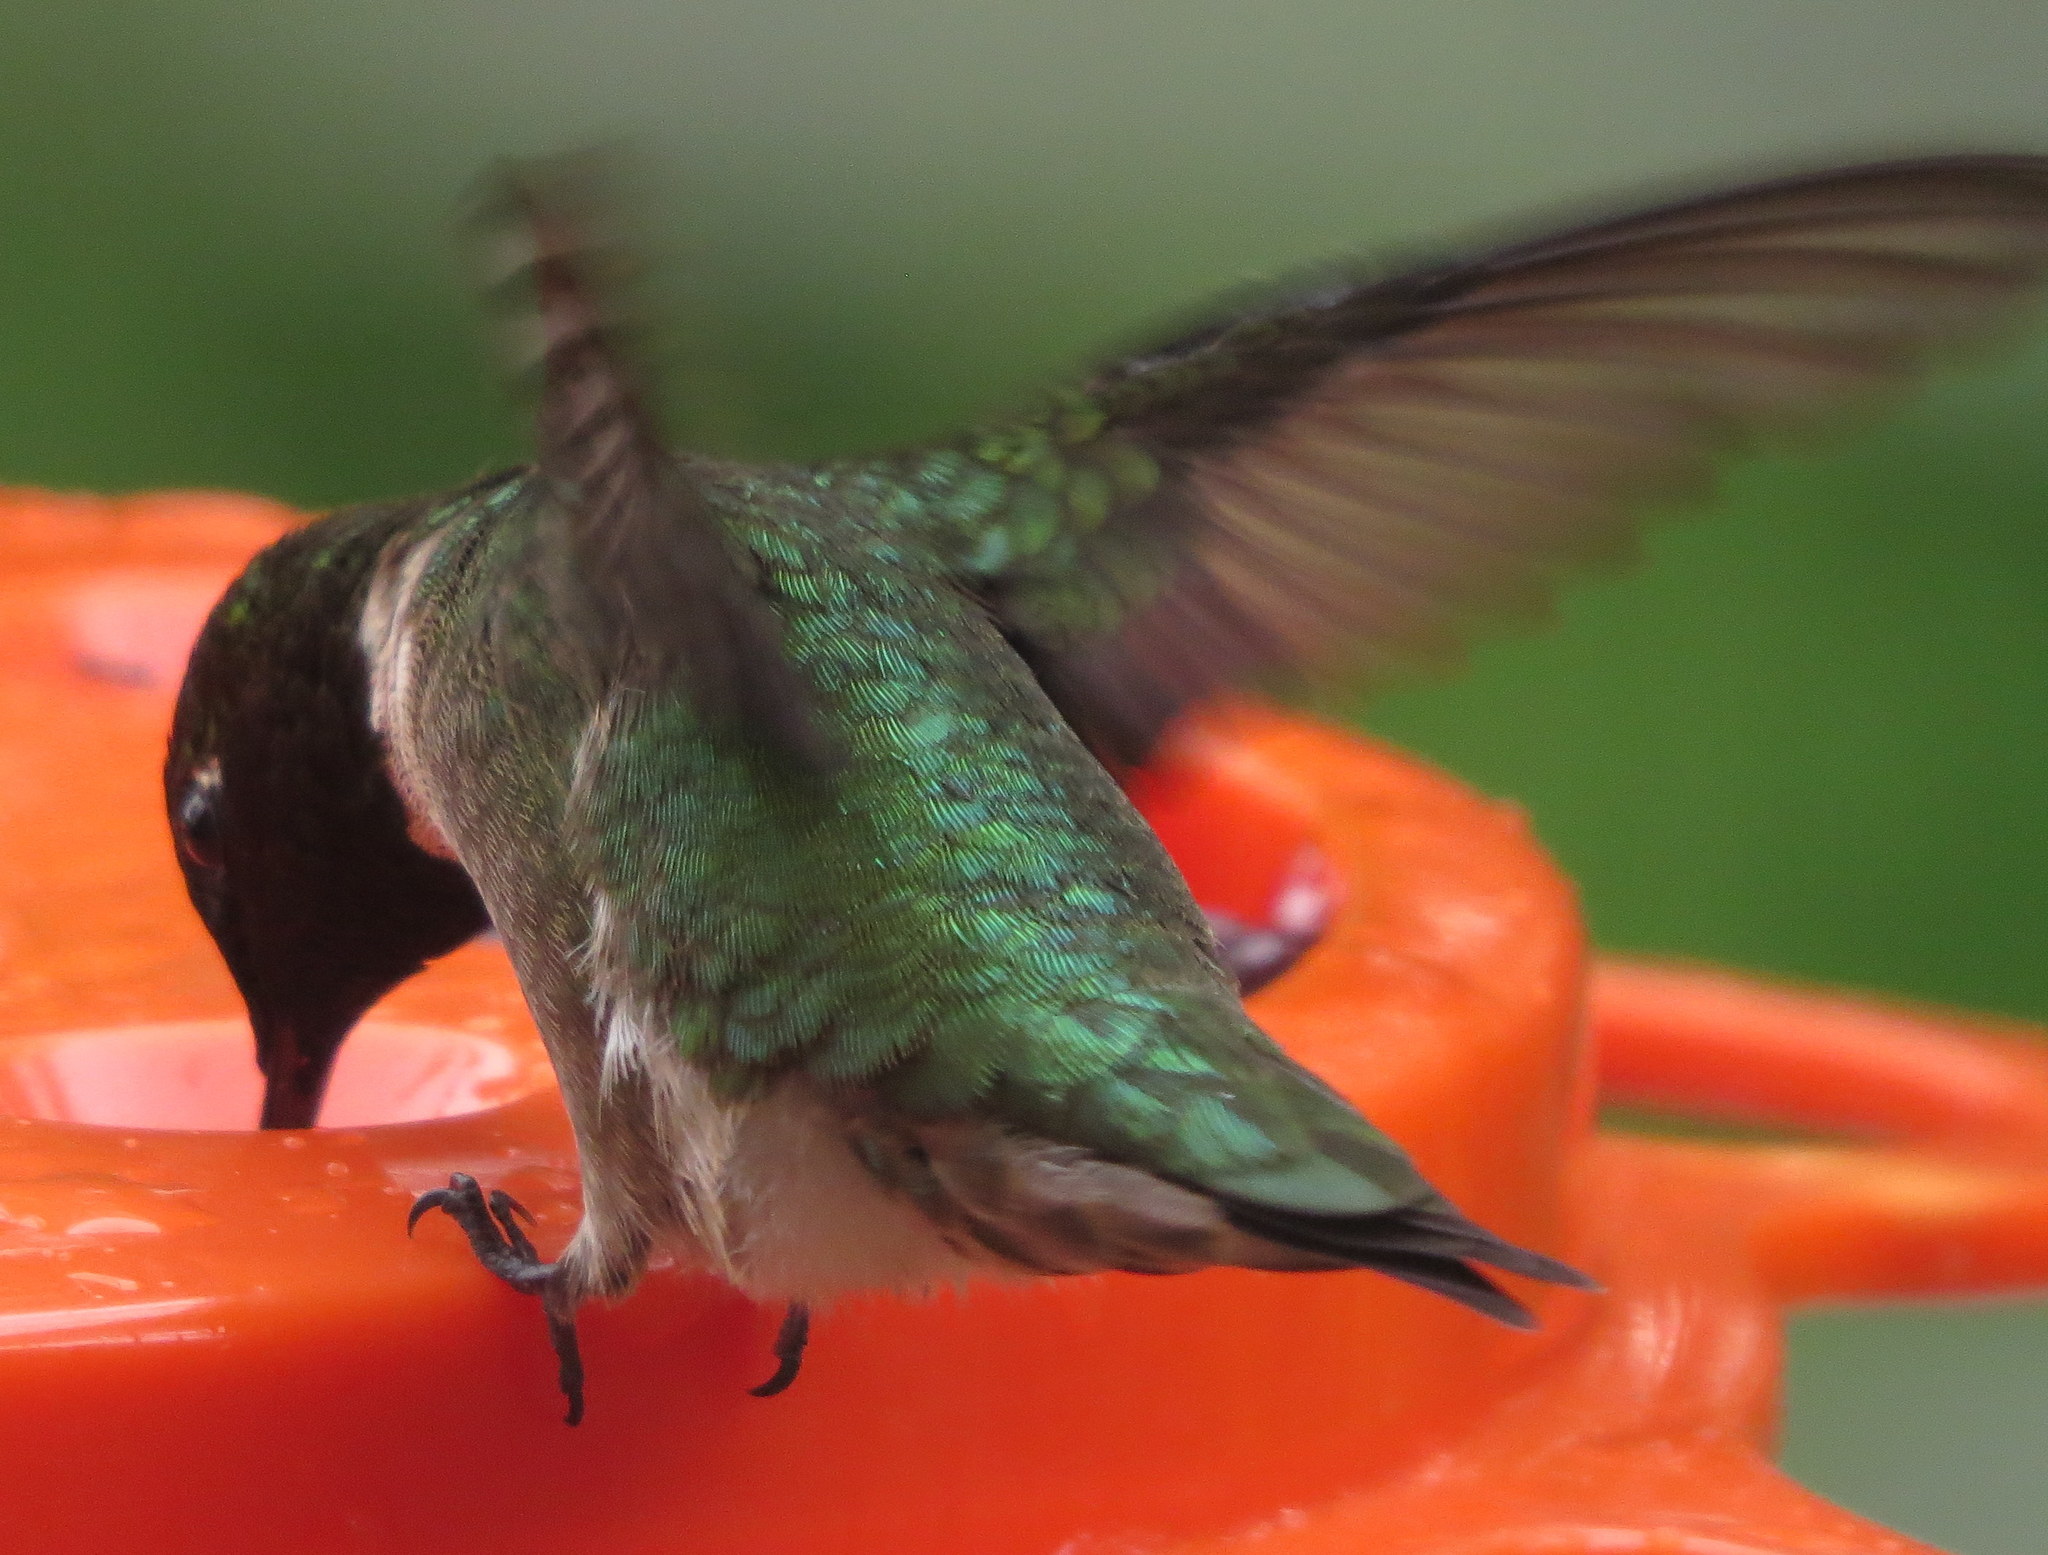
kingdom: Animalia
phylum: Chordata
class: Aves
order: Apodiformes
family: Trochilidae
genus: Archilochus
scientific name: Archilochus colubris
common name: Ruby-throated hummingbird
